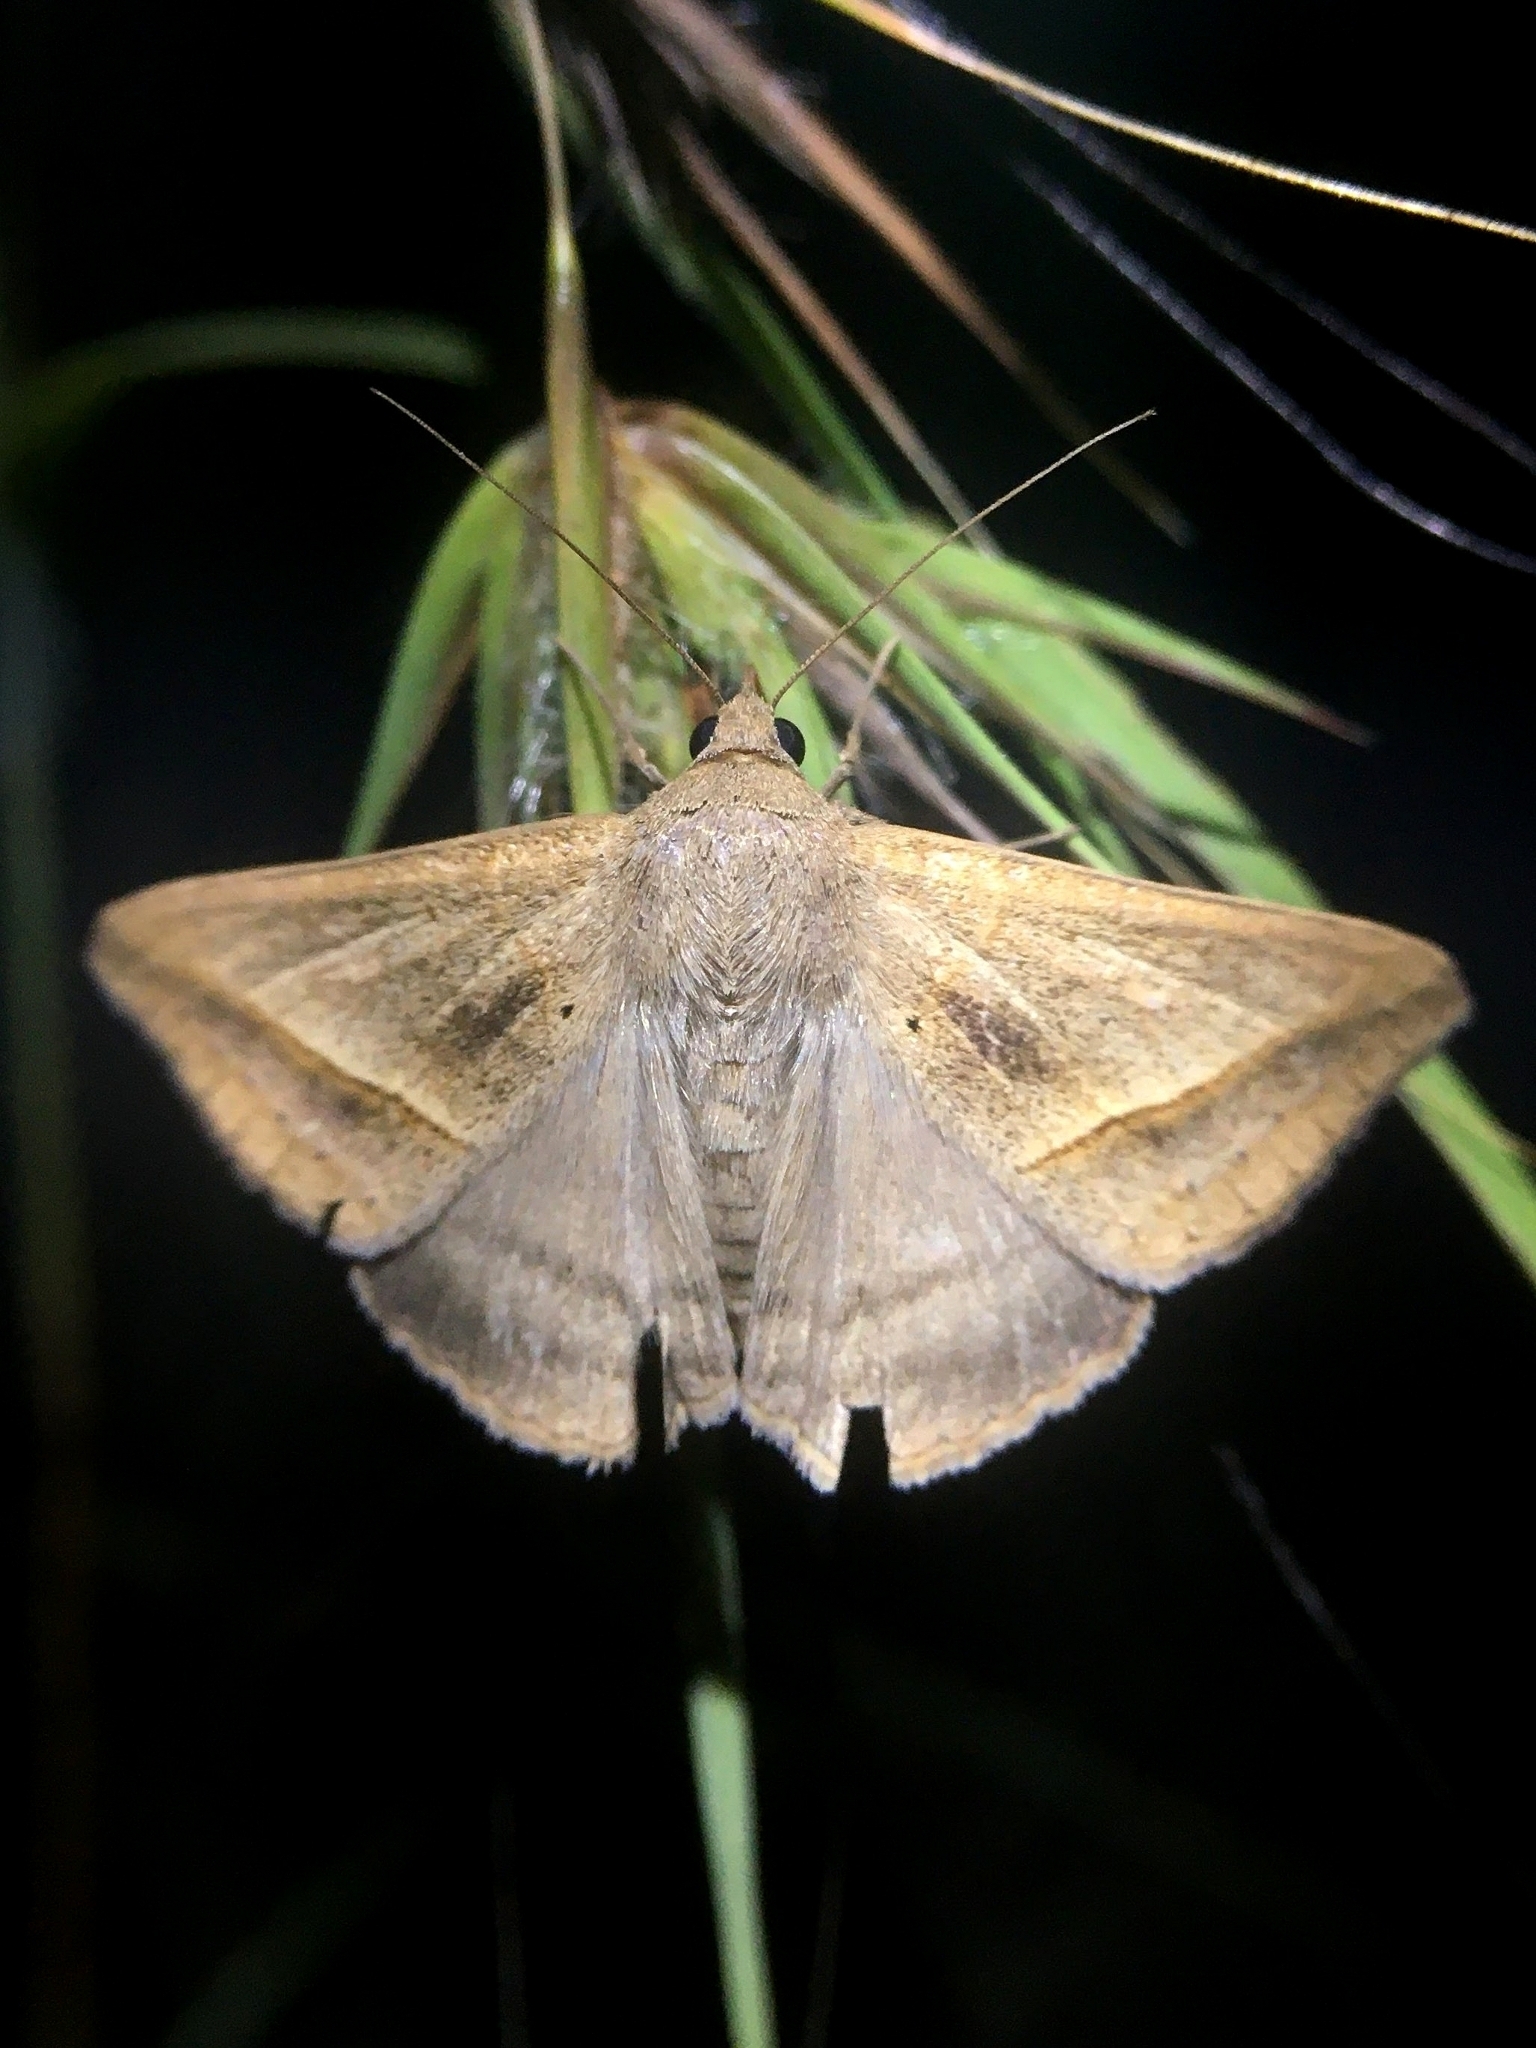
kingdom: Animalia
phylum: Arthropoda
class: Insecta
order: Lepidoptera
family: Erebidae
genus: Mocis
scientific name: Mocis frugalis
